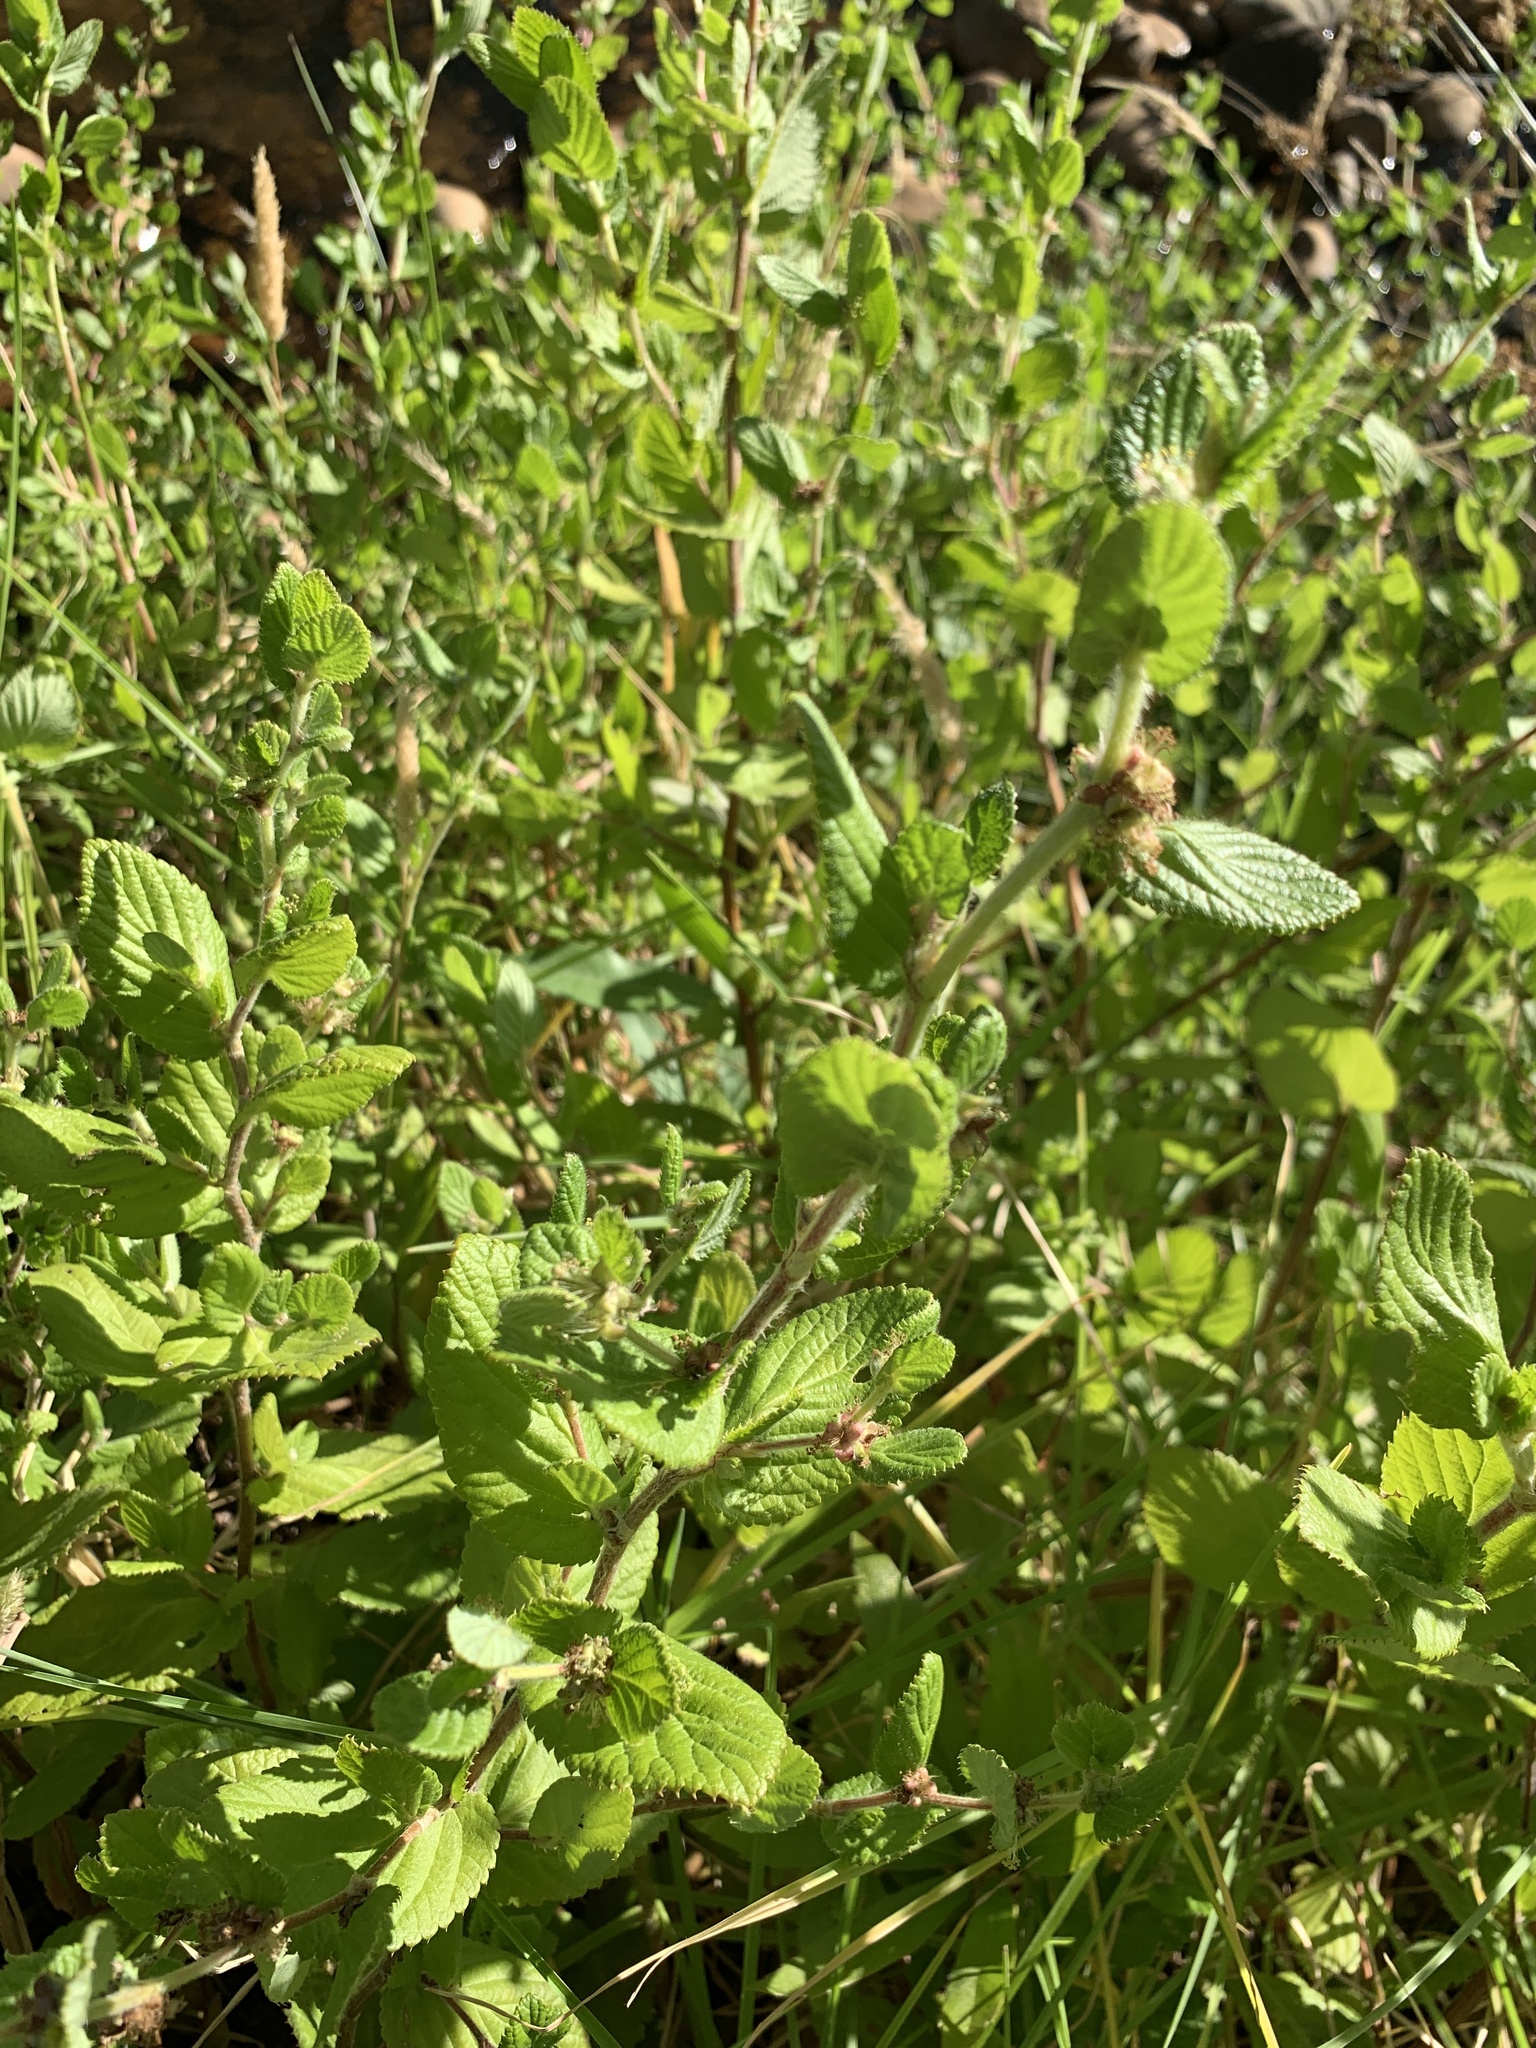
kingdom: Plantae
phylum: Tracheophyta
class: Magnoliopsida
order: Rosales
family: Rosaceae
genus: Cliffortia
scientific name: Cliffortia odorata
